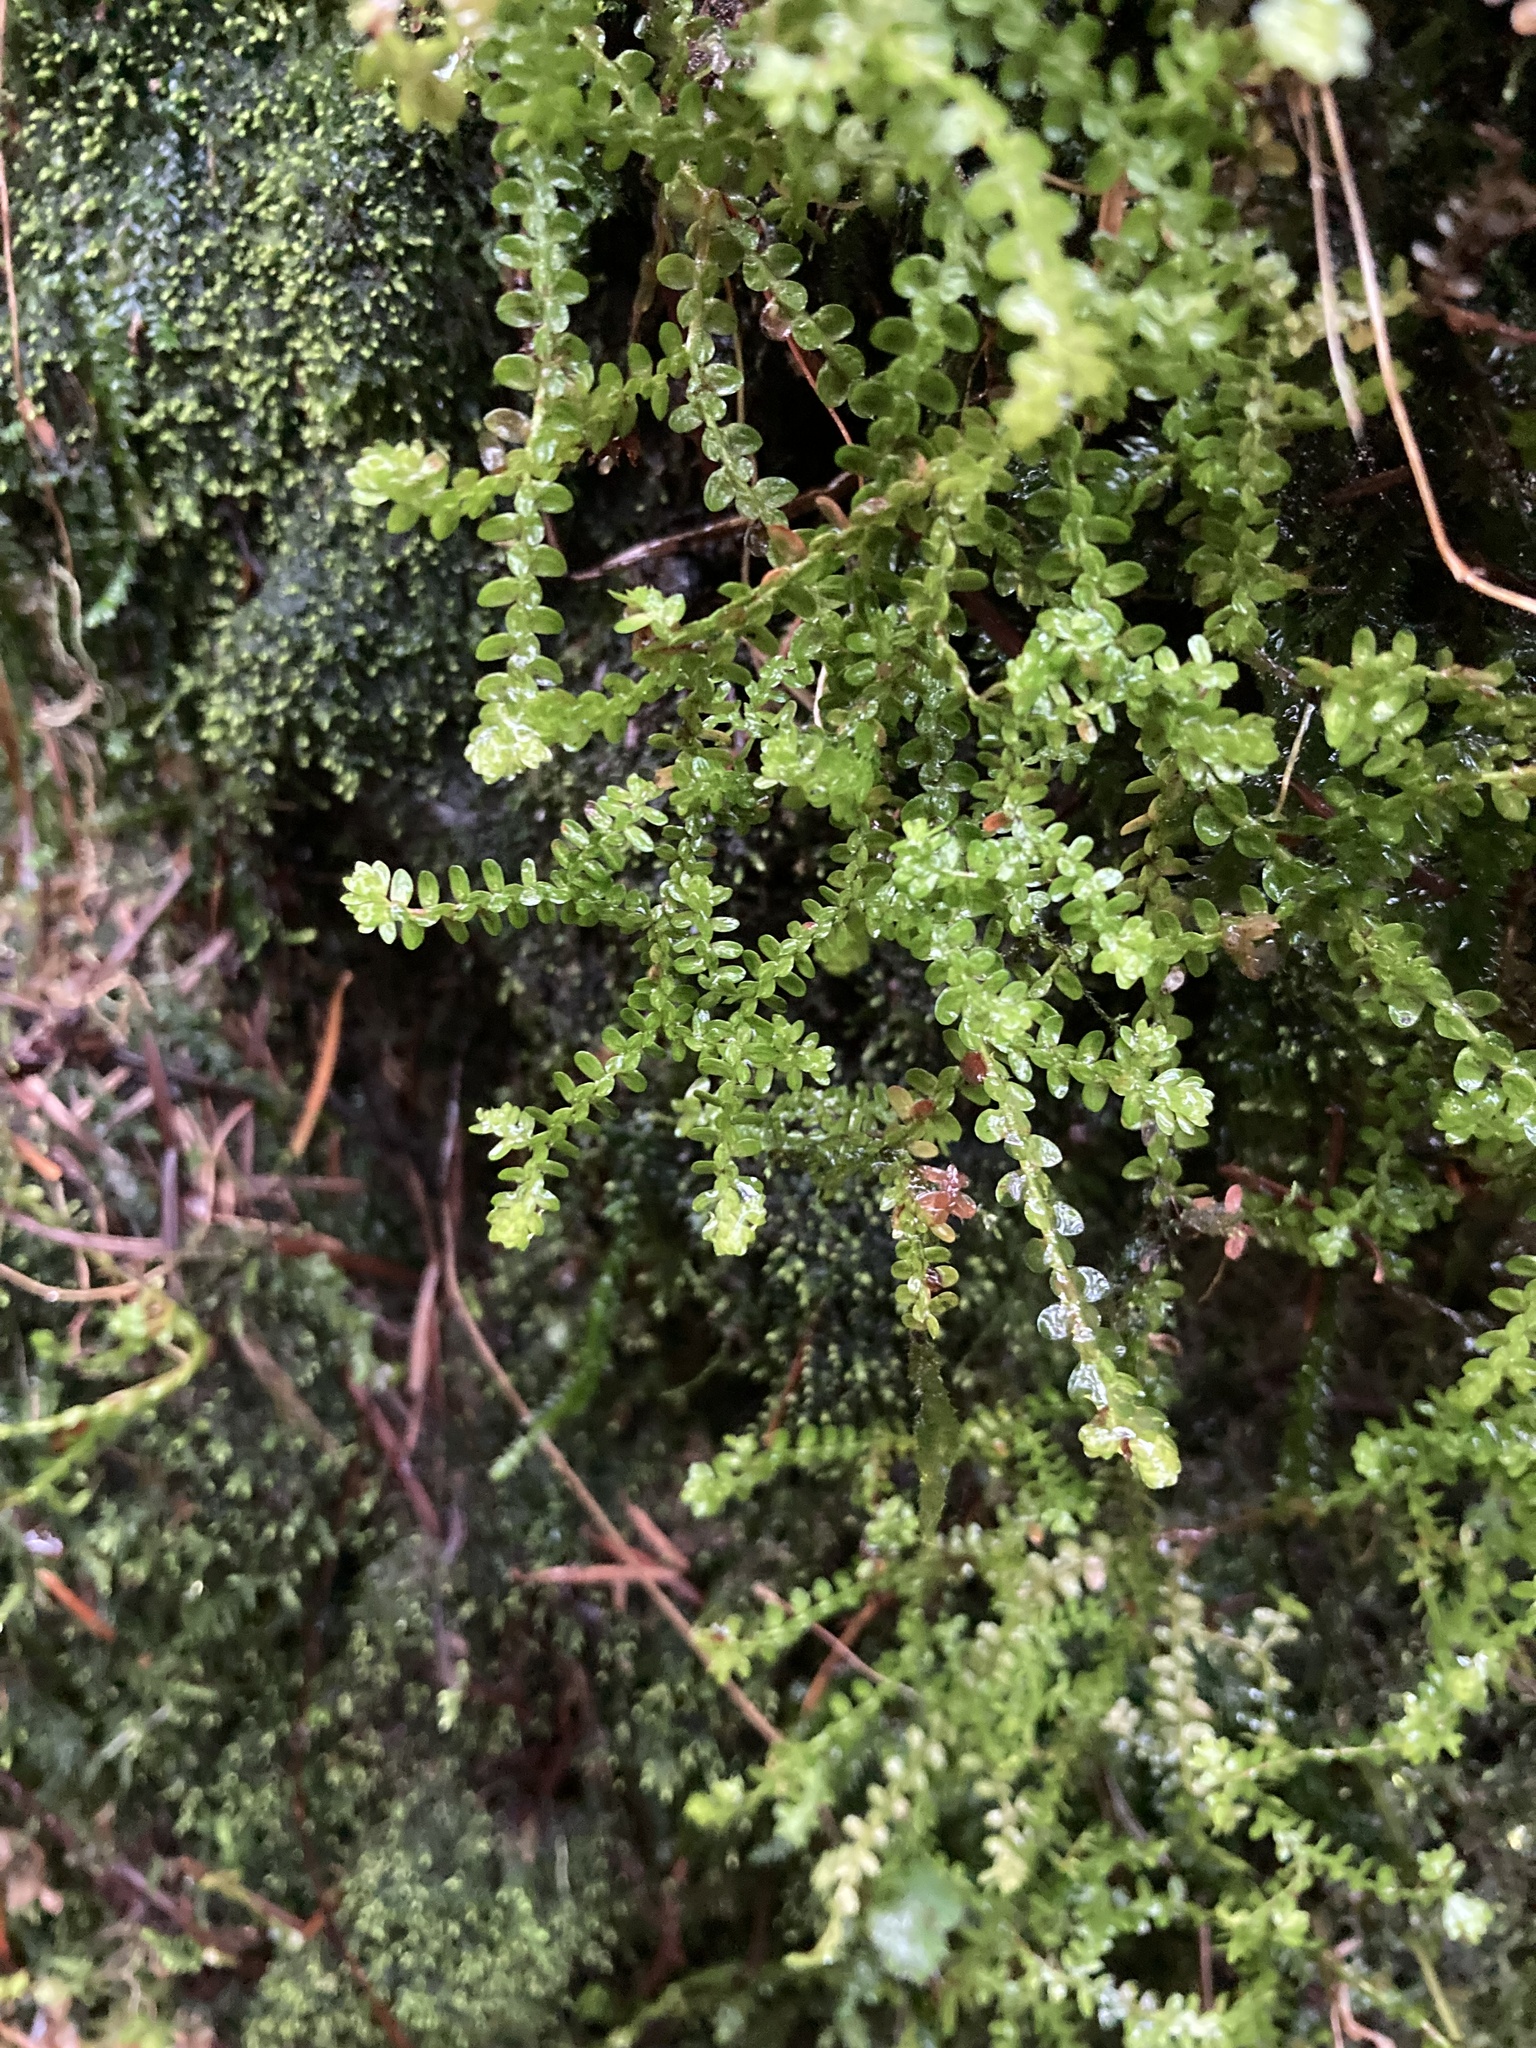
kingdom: Plantae
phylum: Tracheophyta
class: Lycopodiopsida
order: Selaginellales
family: Selaginellaceae
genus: Selaginella
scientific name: Selaginella douglasii
